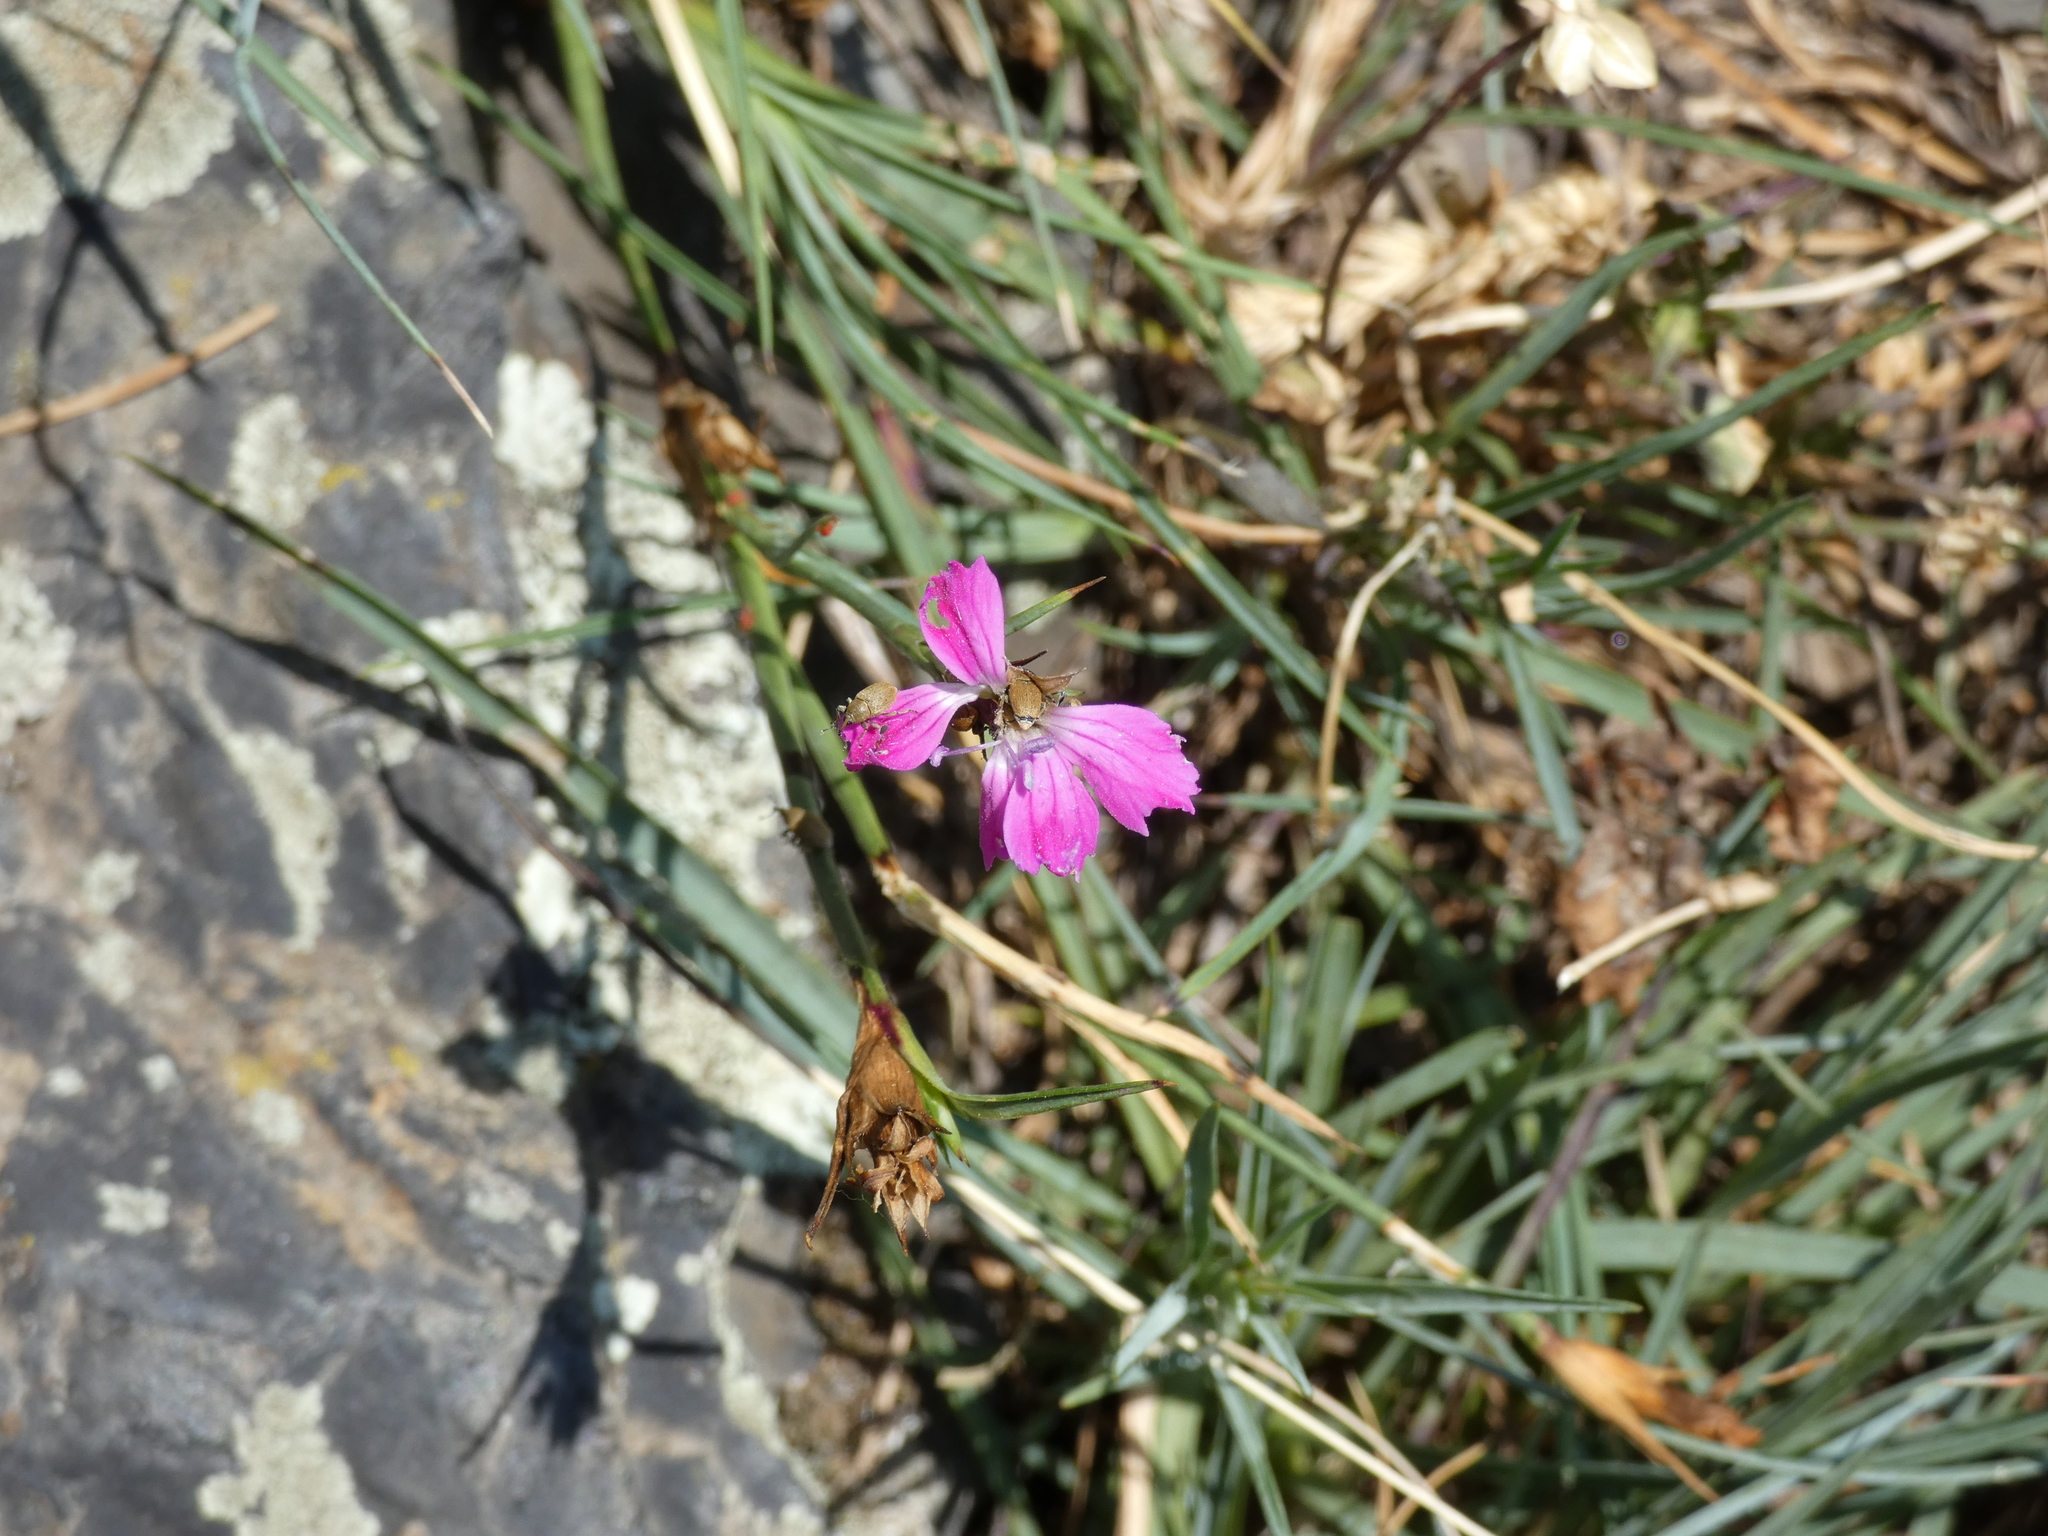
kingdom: Plantae
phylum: Tracheophyta
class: Magnoliopsida
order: Caryophyllales
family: Caryophyllaceae
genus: Dianthus
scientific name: Dianthus carthusianorum
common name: Carthusian pink
